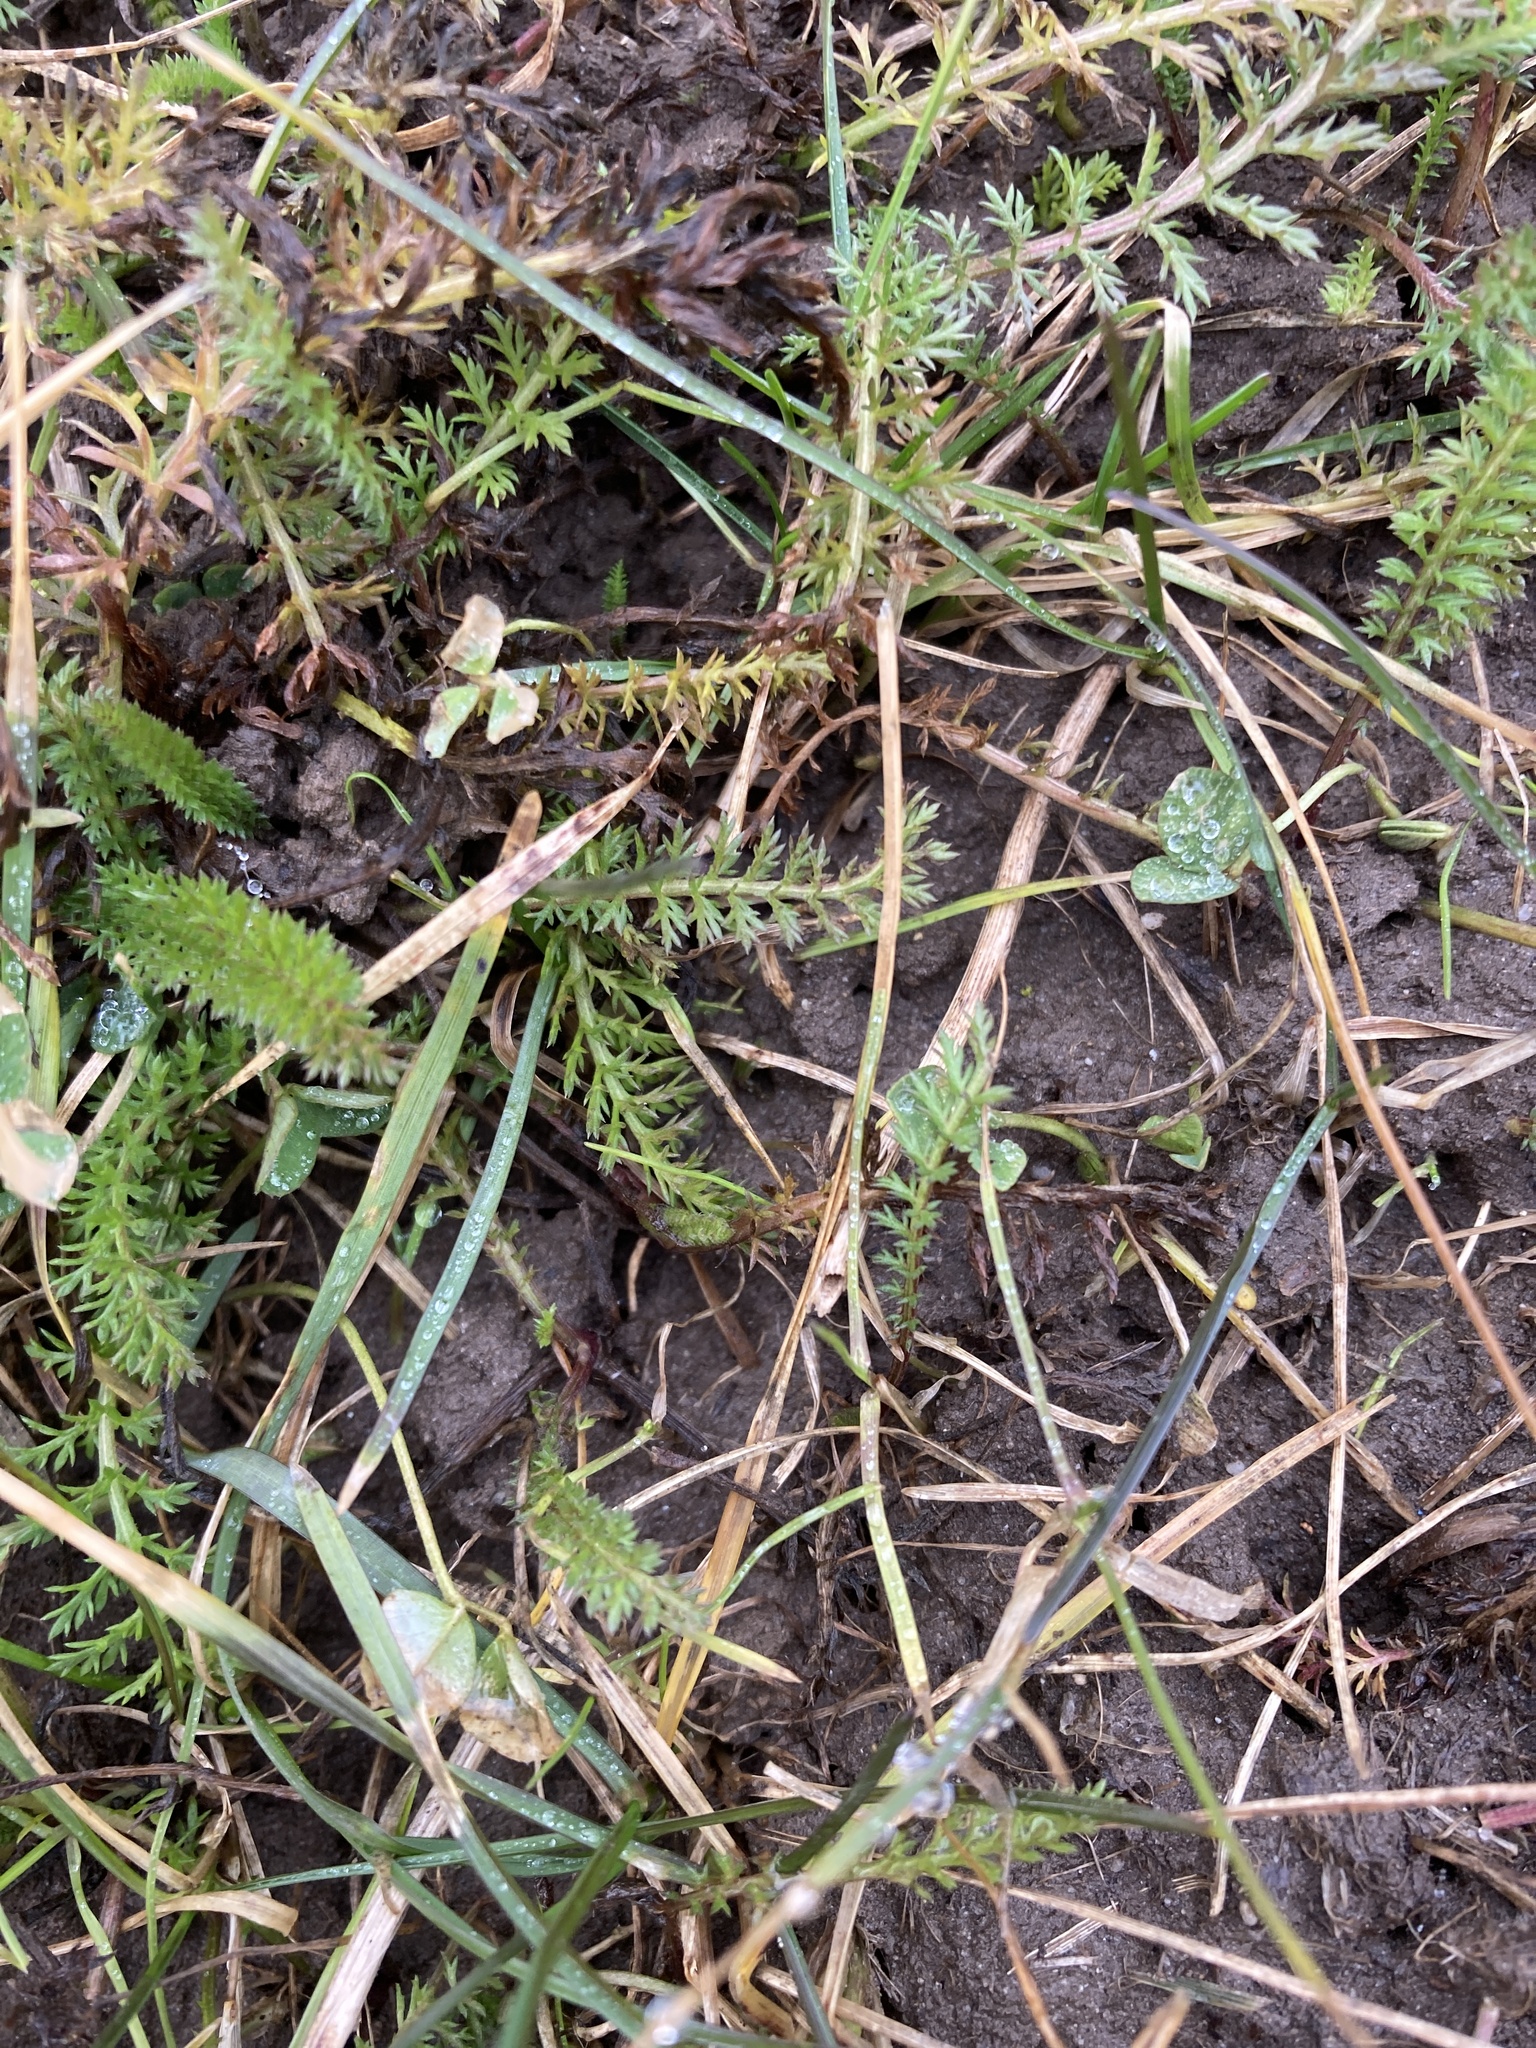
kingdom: Plantae
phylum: Tracheophyta
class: Magnoliopsida
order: Asterales
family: Asteraceae
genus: Achillea
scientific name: Achillea millefolium
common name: Yarrow
